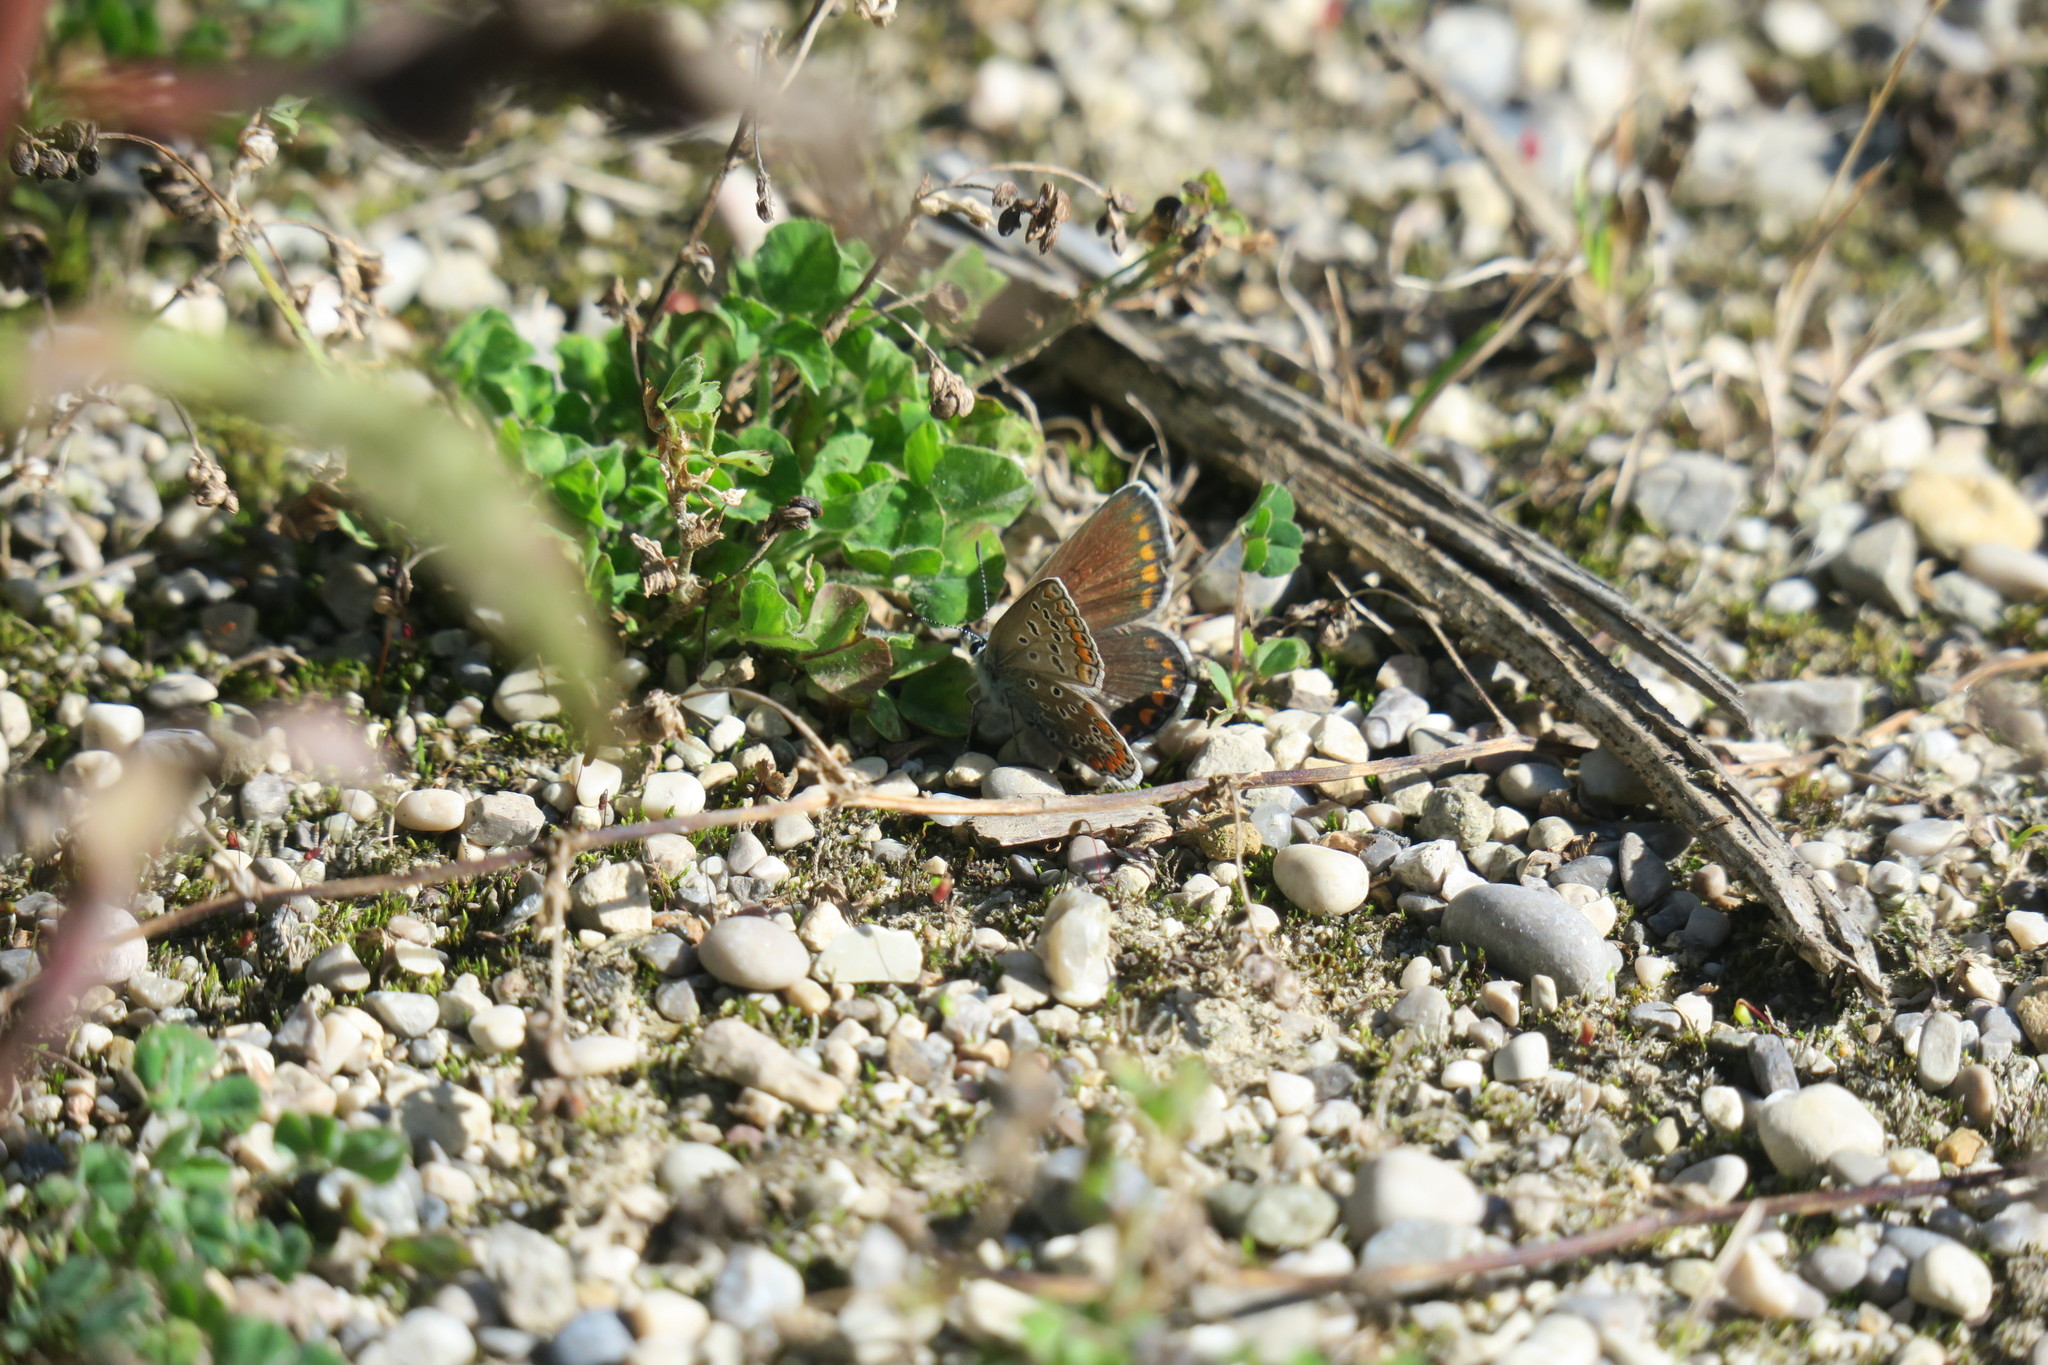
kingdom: Animalia
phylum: Arthropoda
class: Insecta
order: Lepidoptera
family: Lycaenidae
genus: Polyommatus
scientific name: Polyommatus icarus
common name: Common blue
